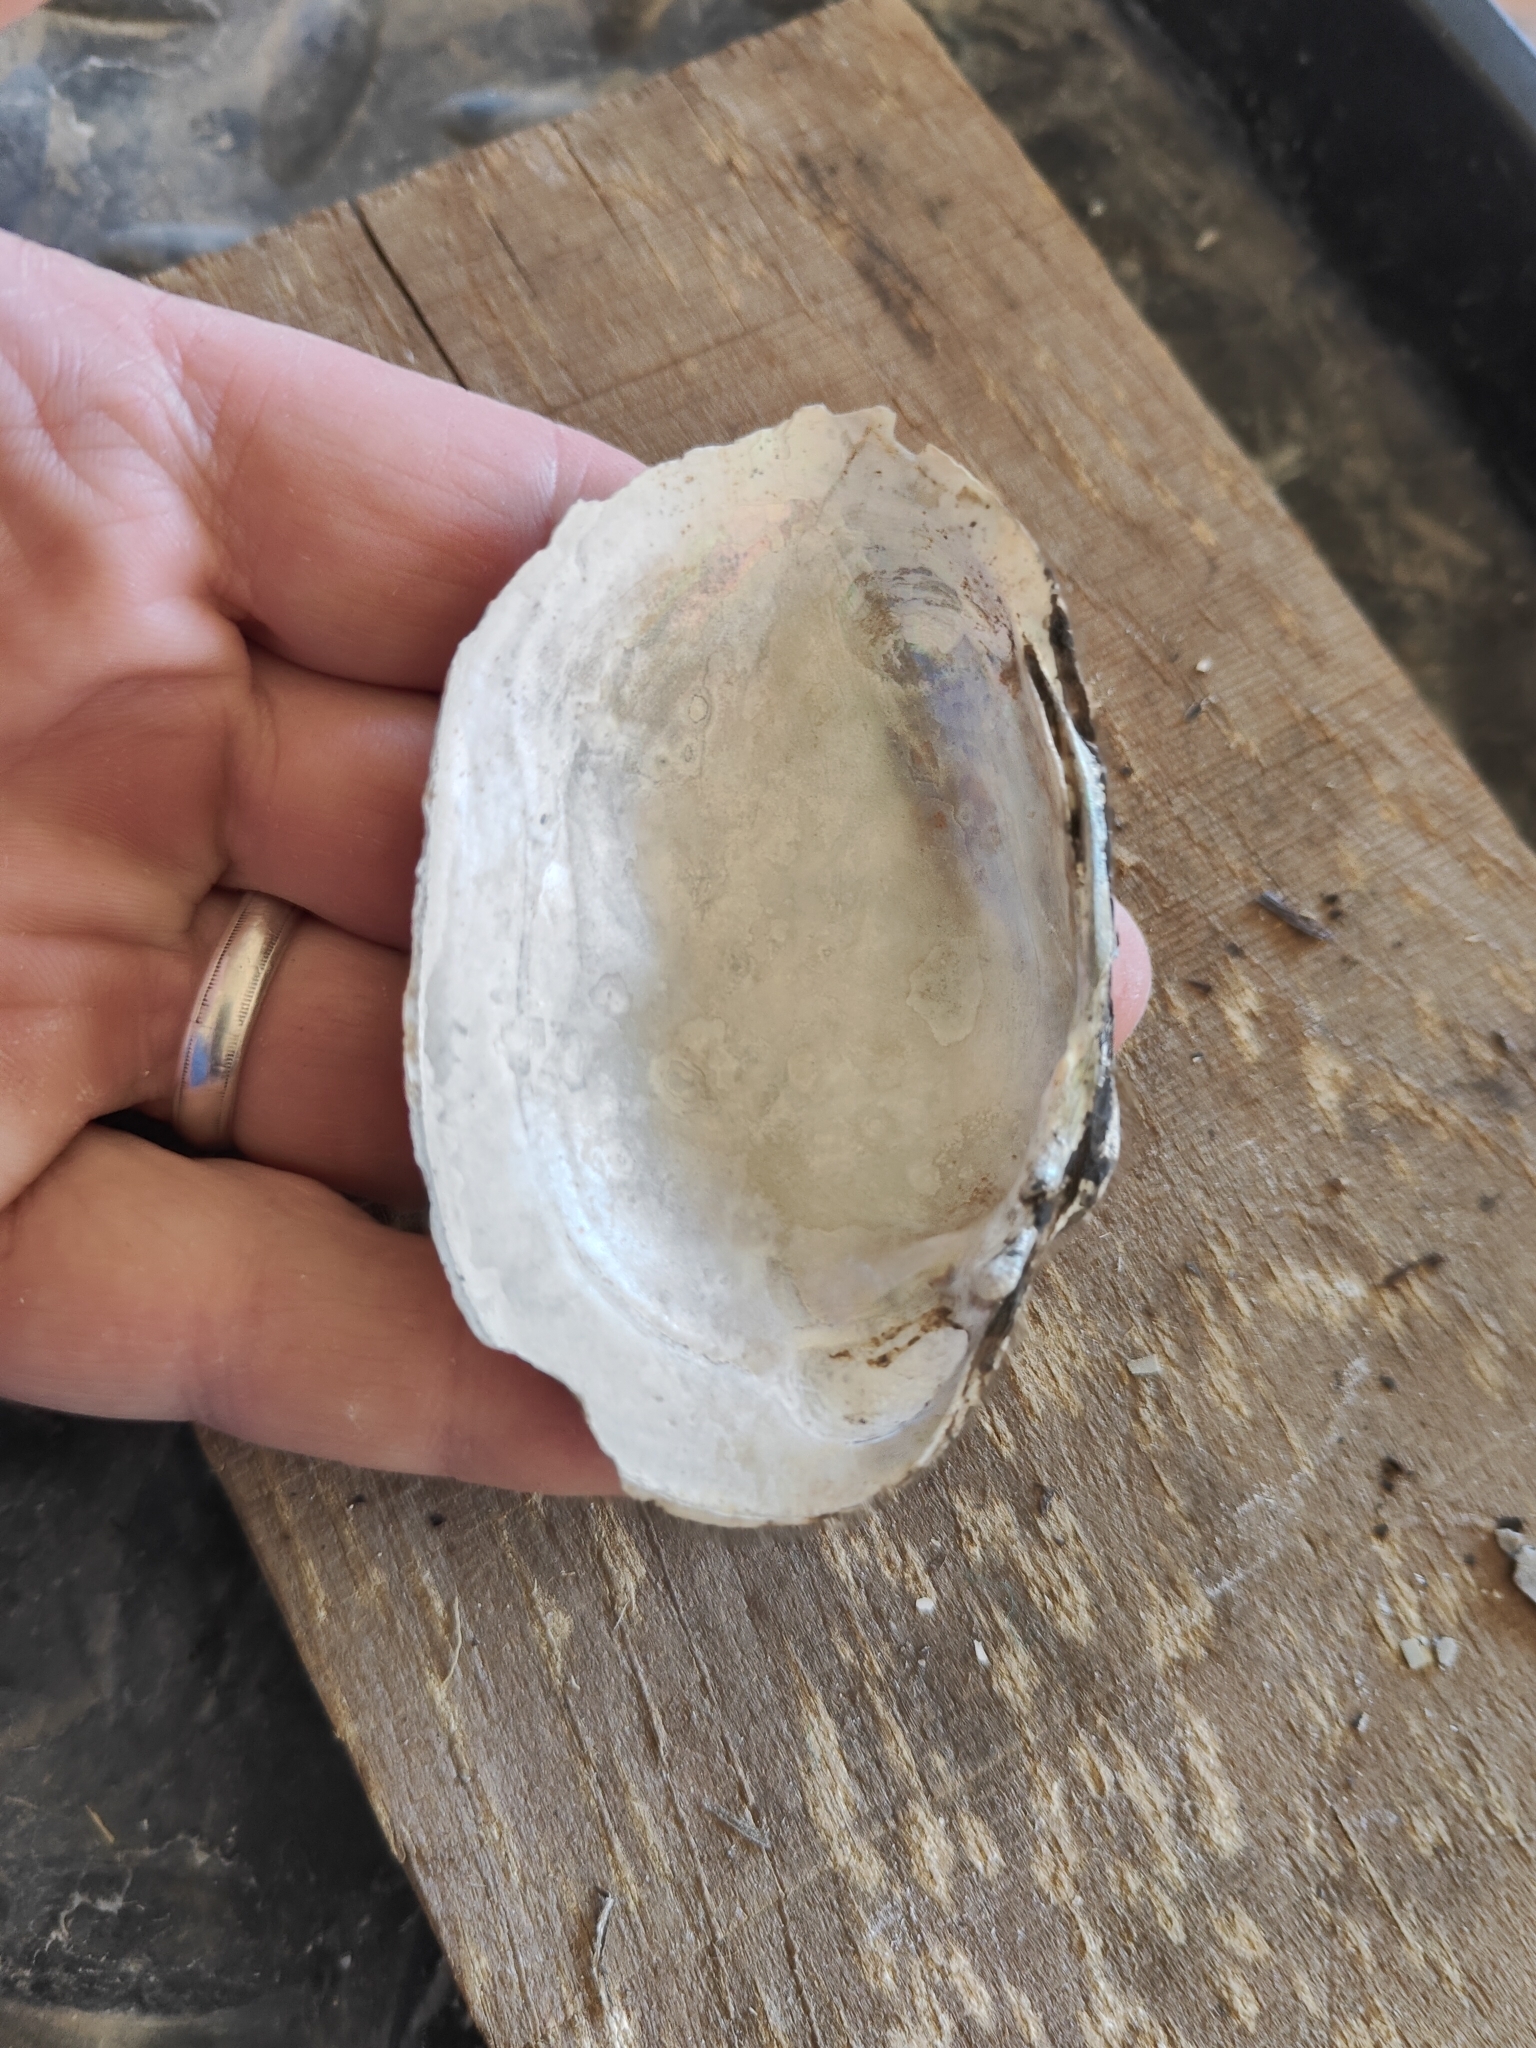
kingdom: Animalia
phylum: Mollusca
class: Bivalvia
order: Unionida
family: Unionidae
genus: Lampsilis
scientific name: Lampsilis cardium
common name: Plain pocketbook
